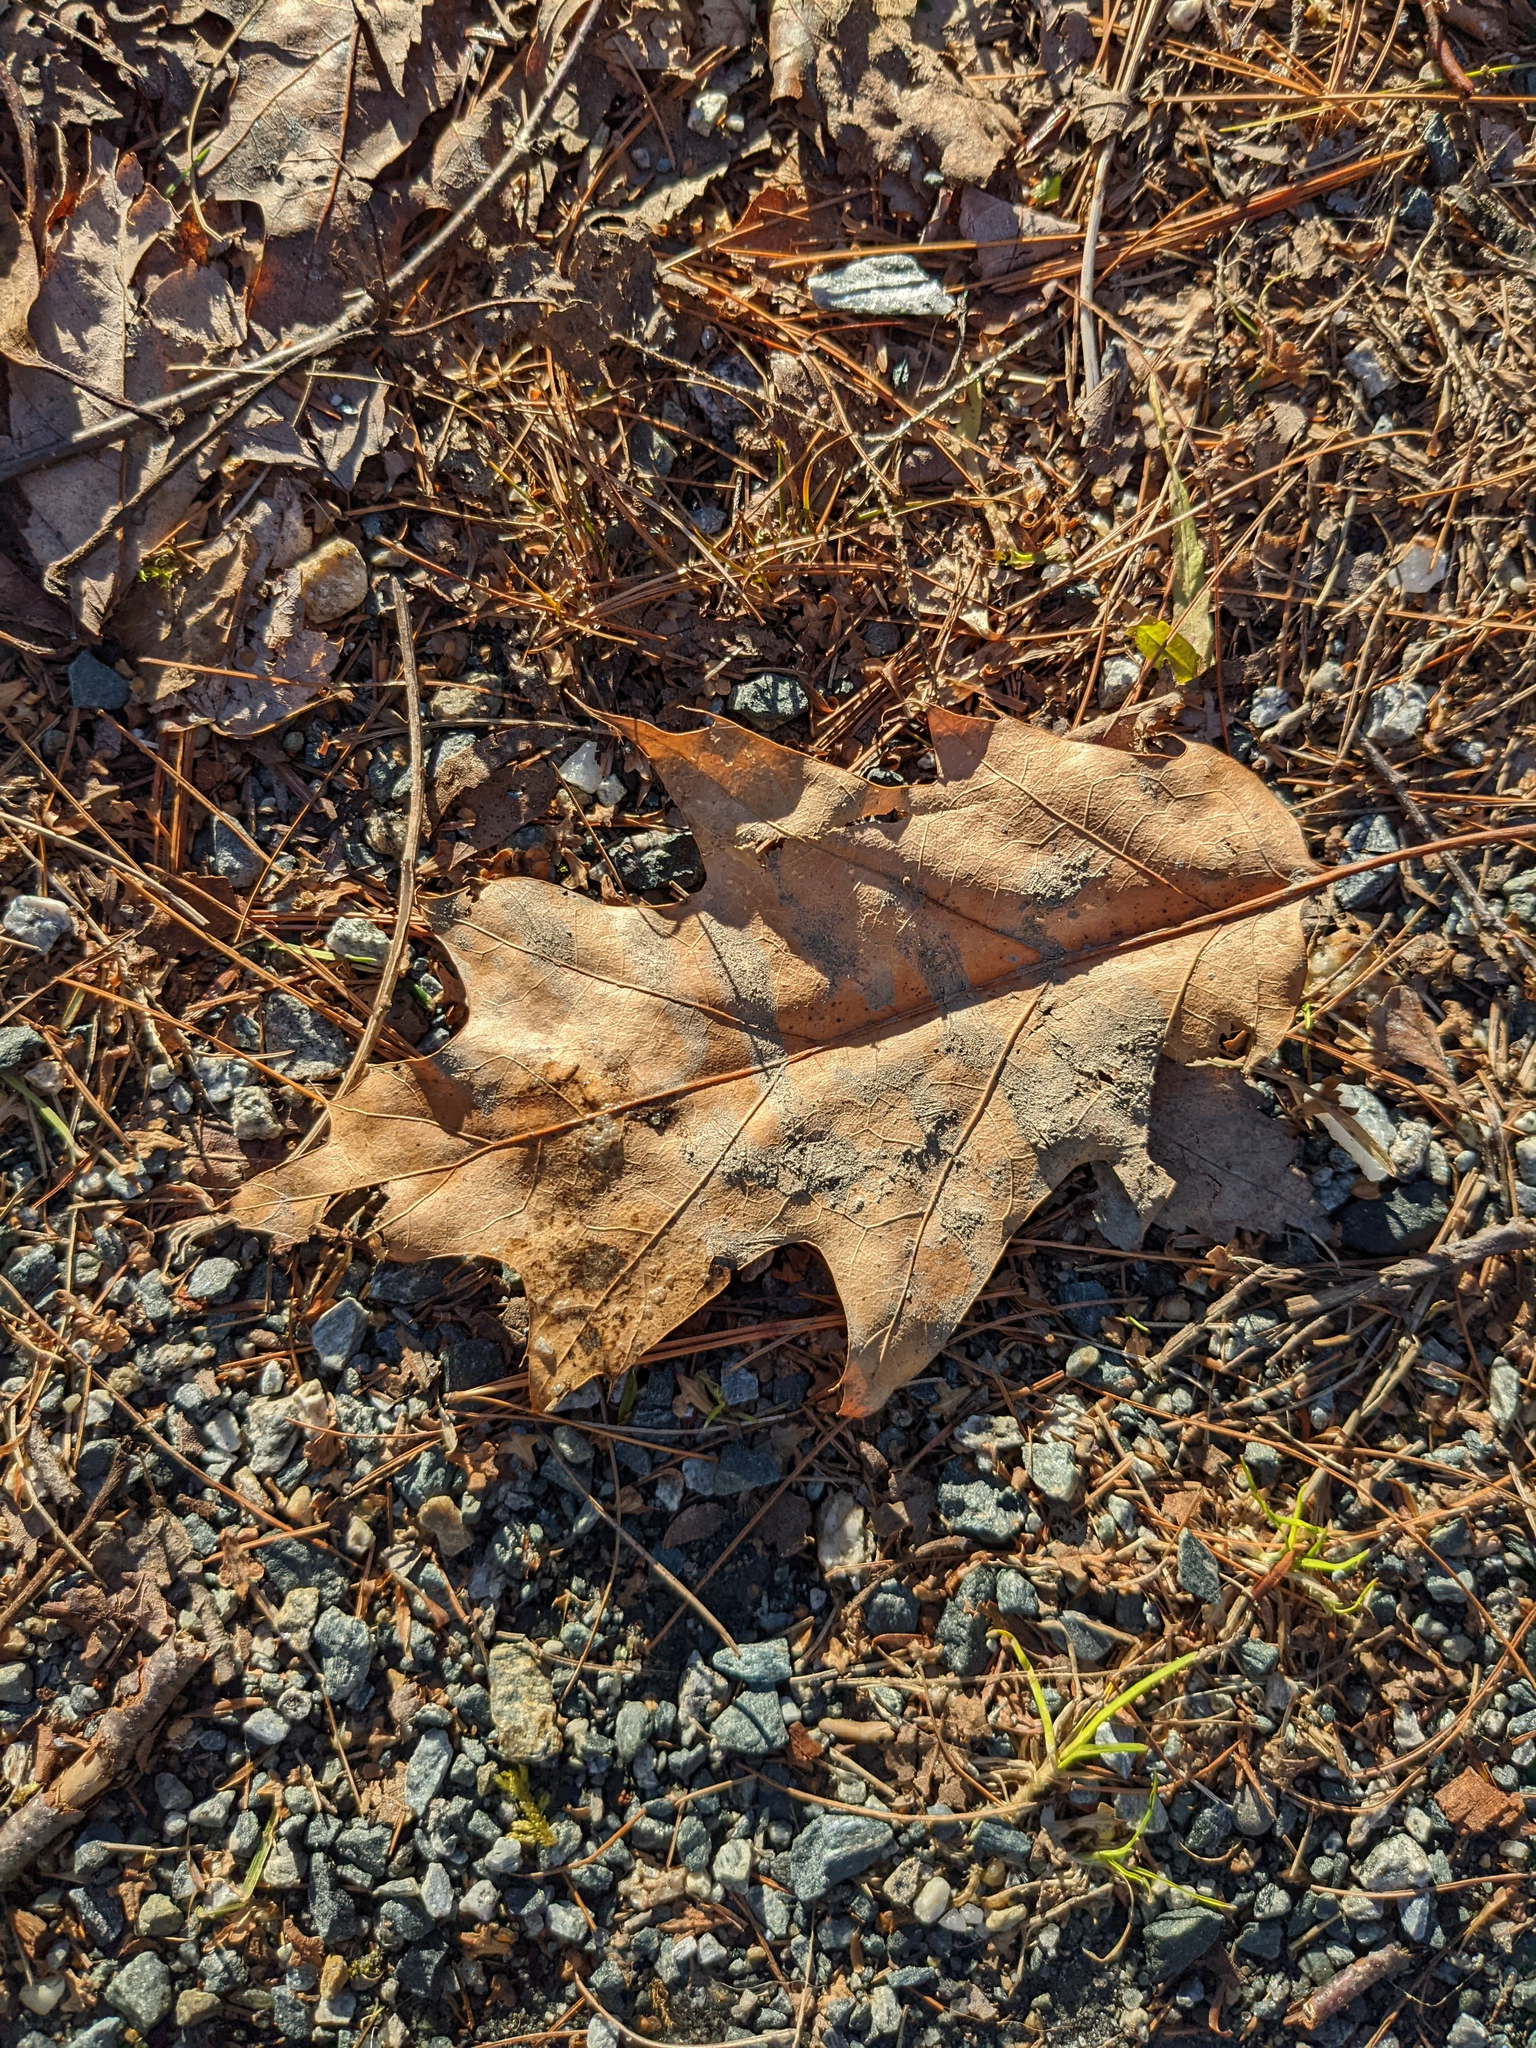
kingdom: Plantae
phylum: Tracheophyta
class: Magnoliopsida
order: Fagales
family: Fagaceae
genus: Quercus
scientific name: Quercus rubra
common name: Red oak
